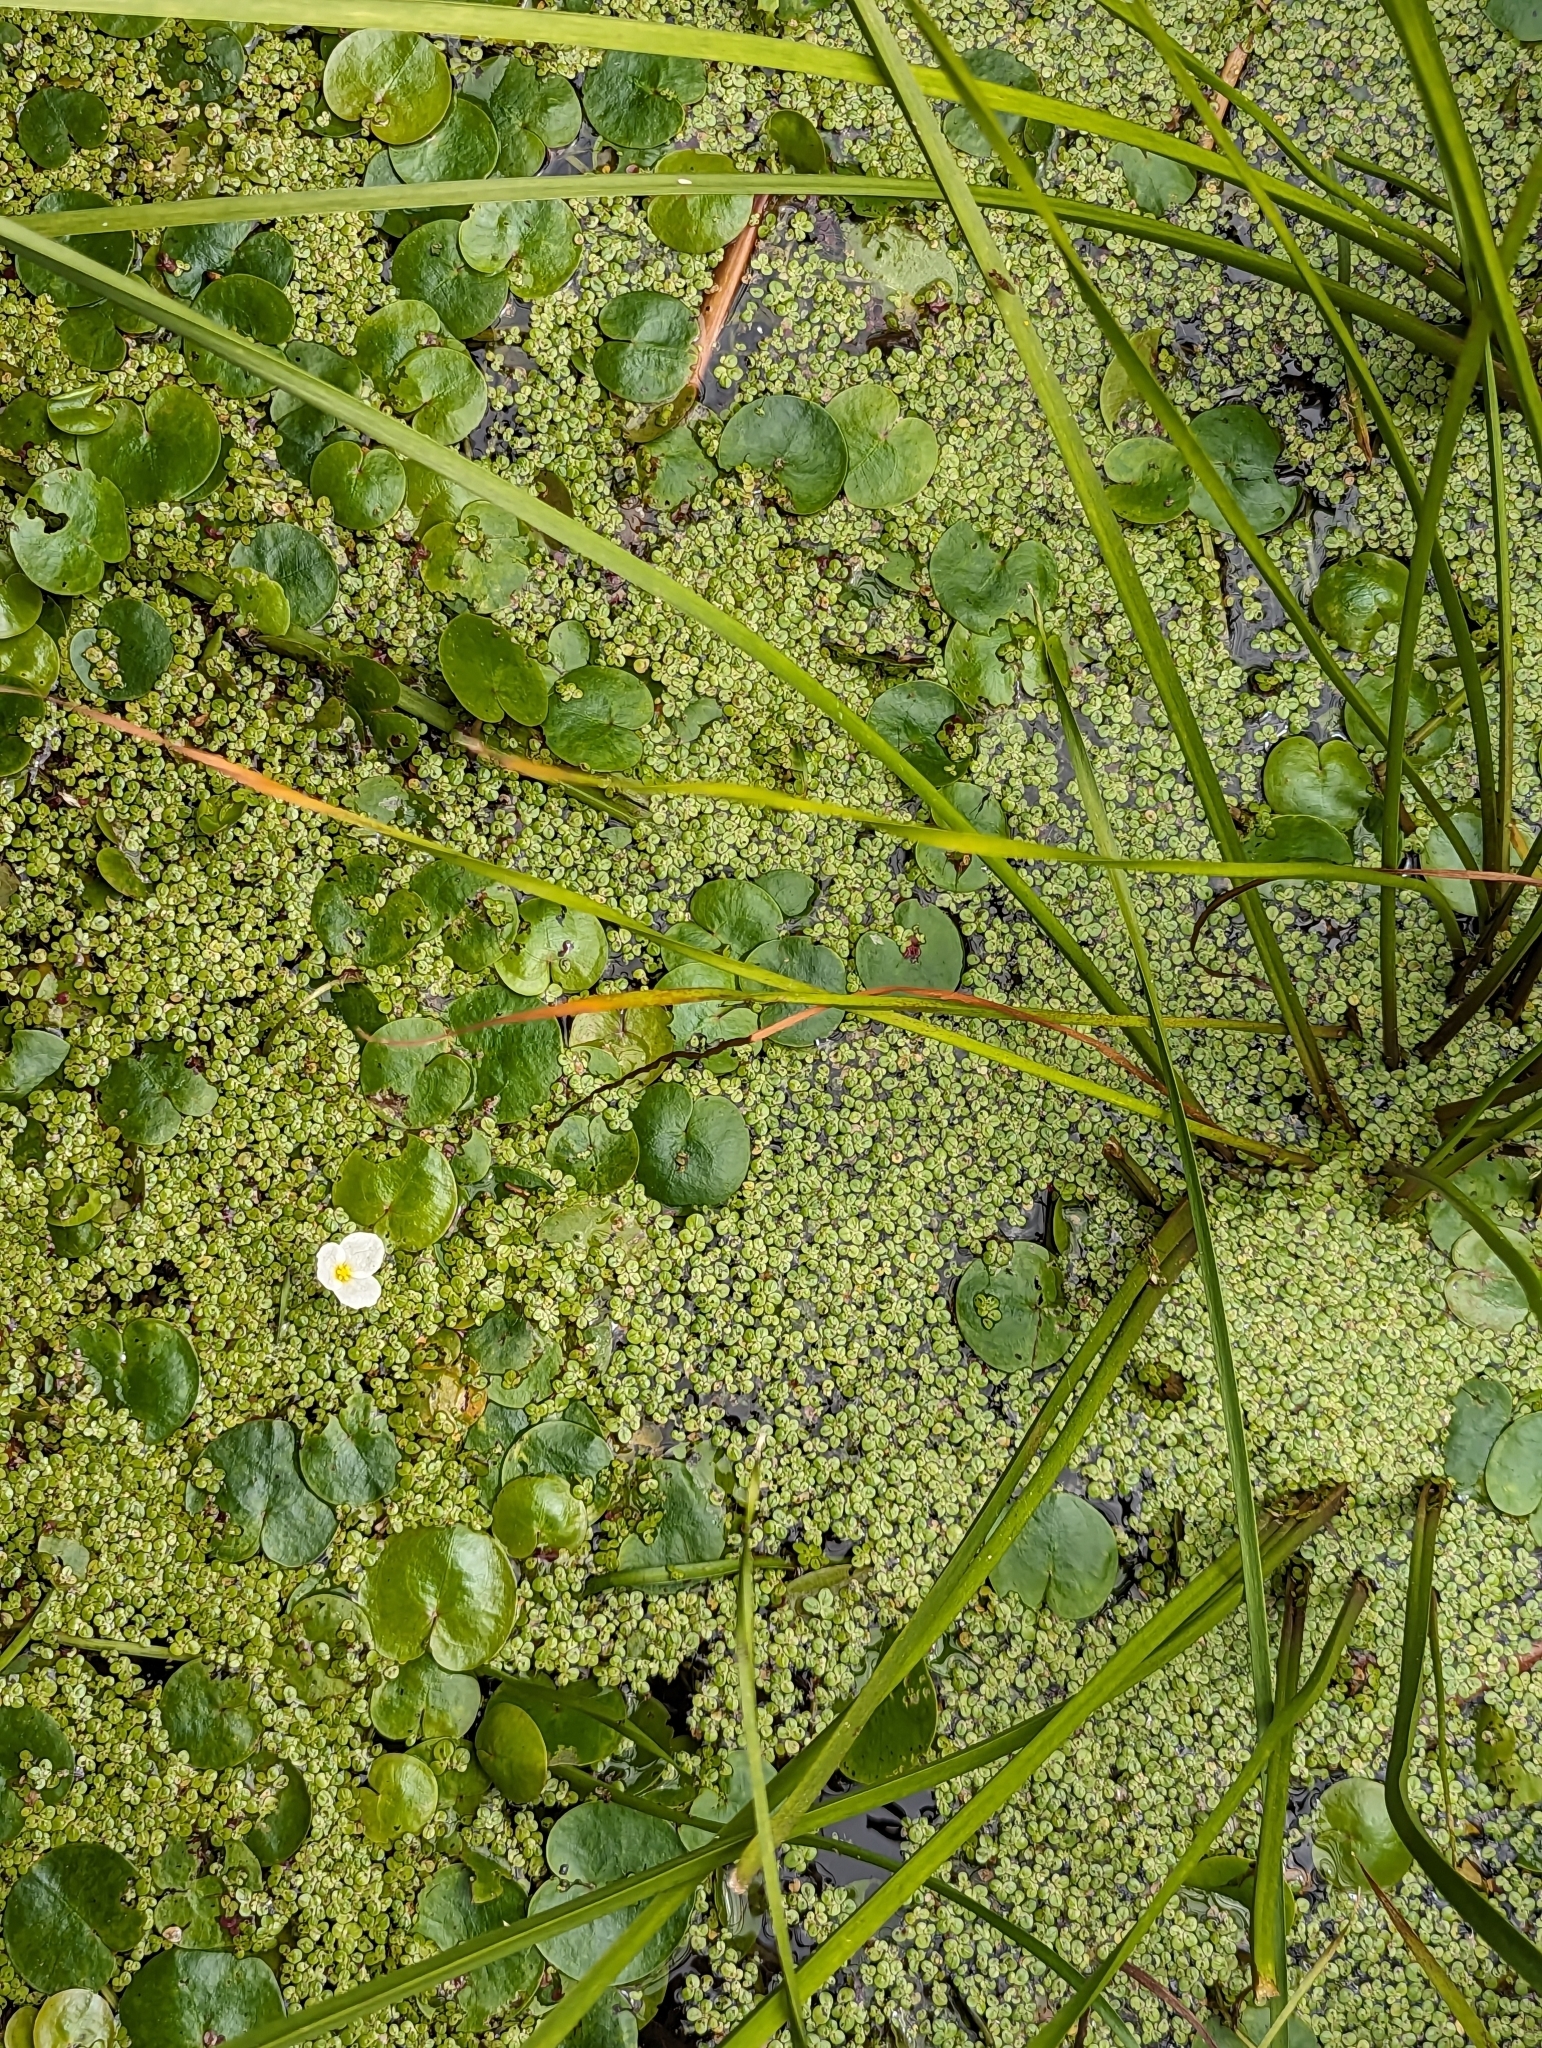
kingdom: Plantae
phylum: Tracheophyta
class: Liliopsida
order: Alismatales
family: Hydrocharitaceae
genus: Hydrocharis
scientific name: Hydrocharis morsus-ranae
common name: Frogbit
